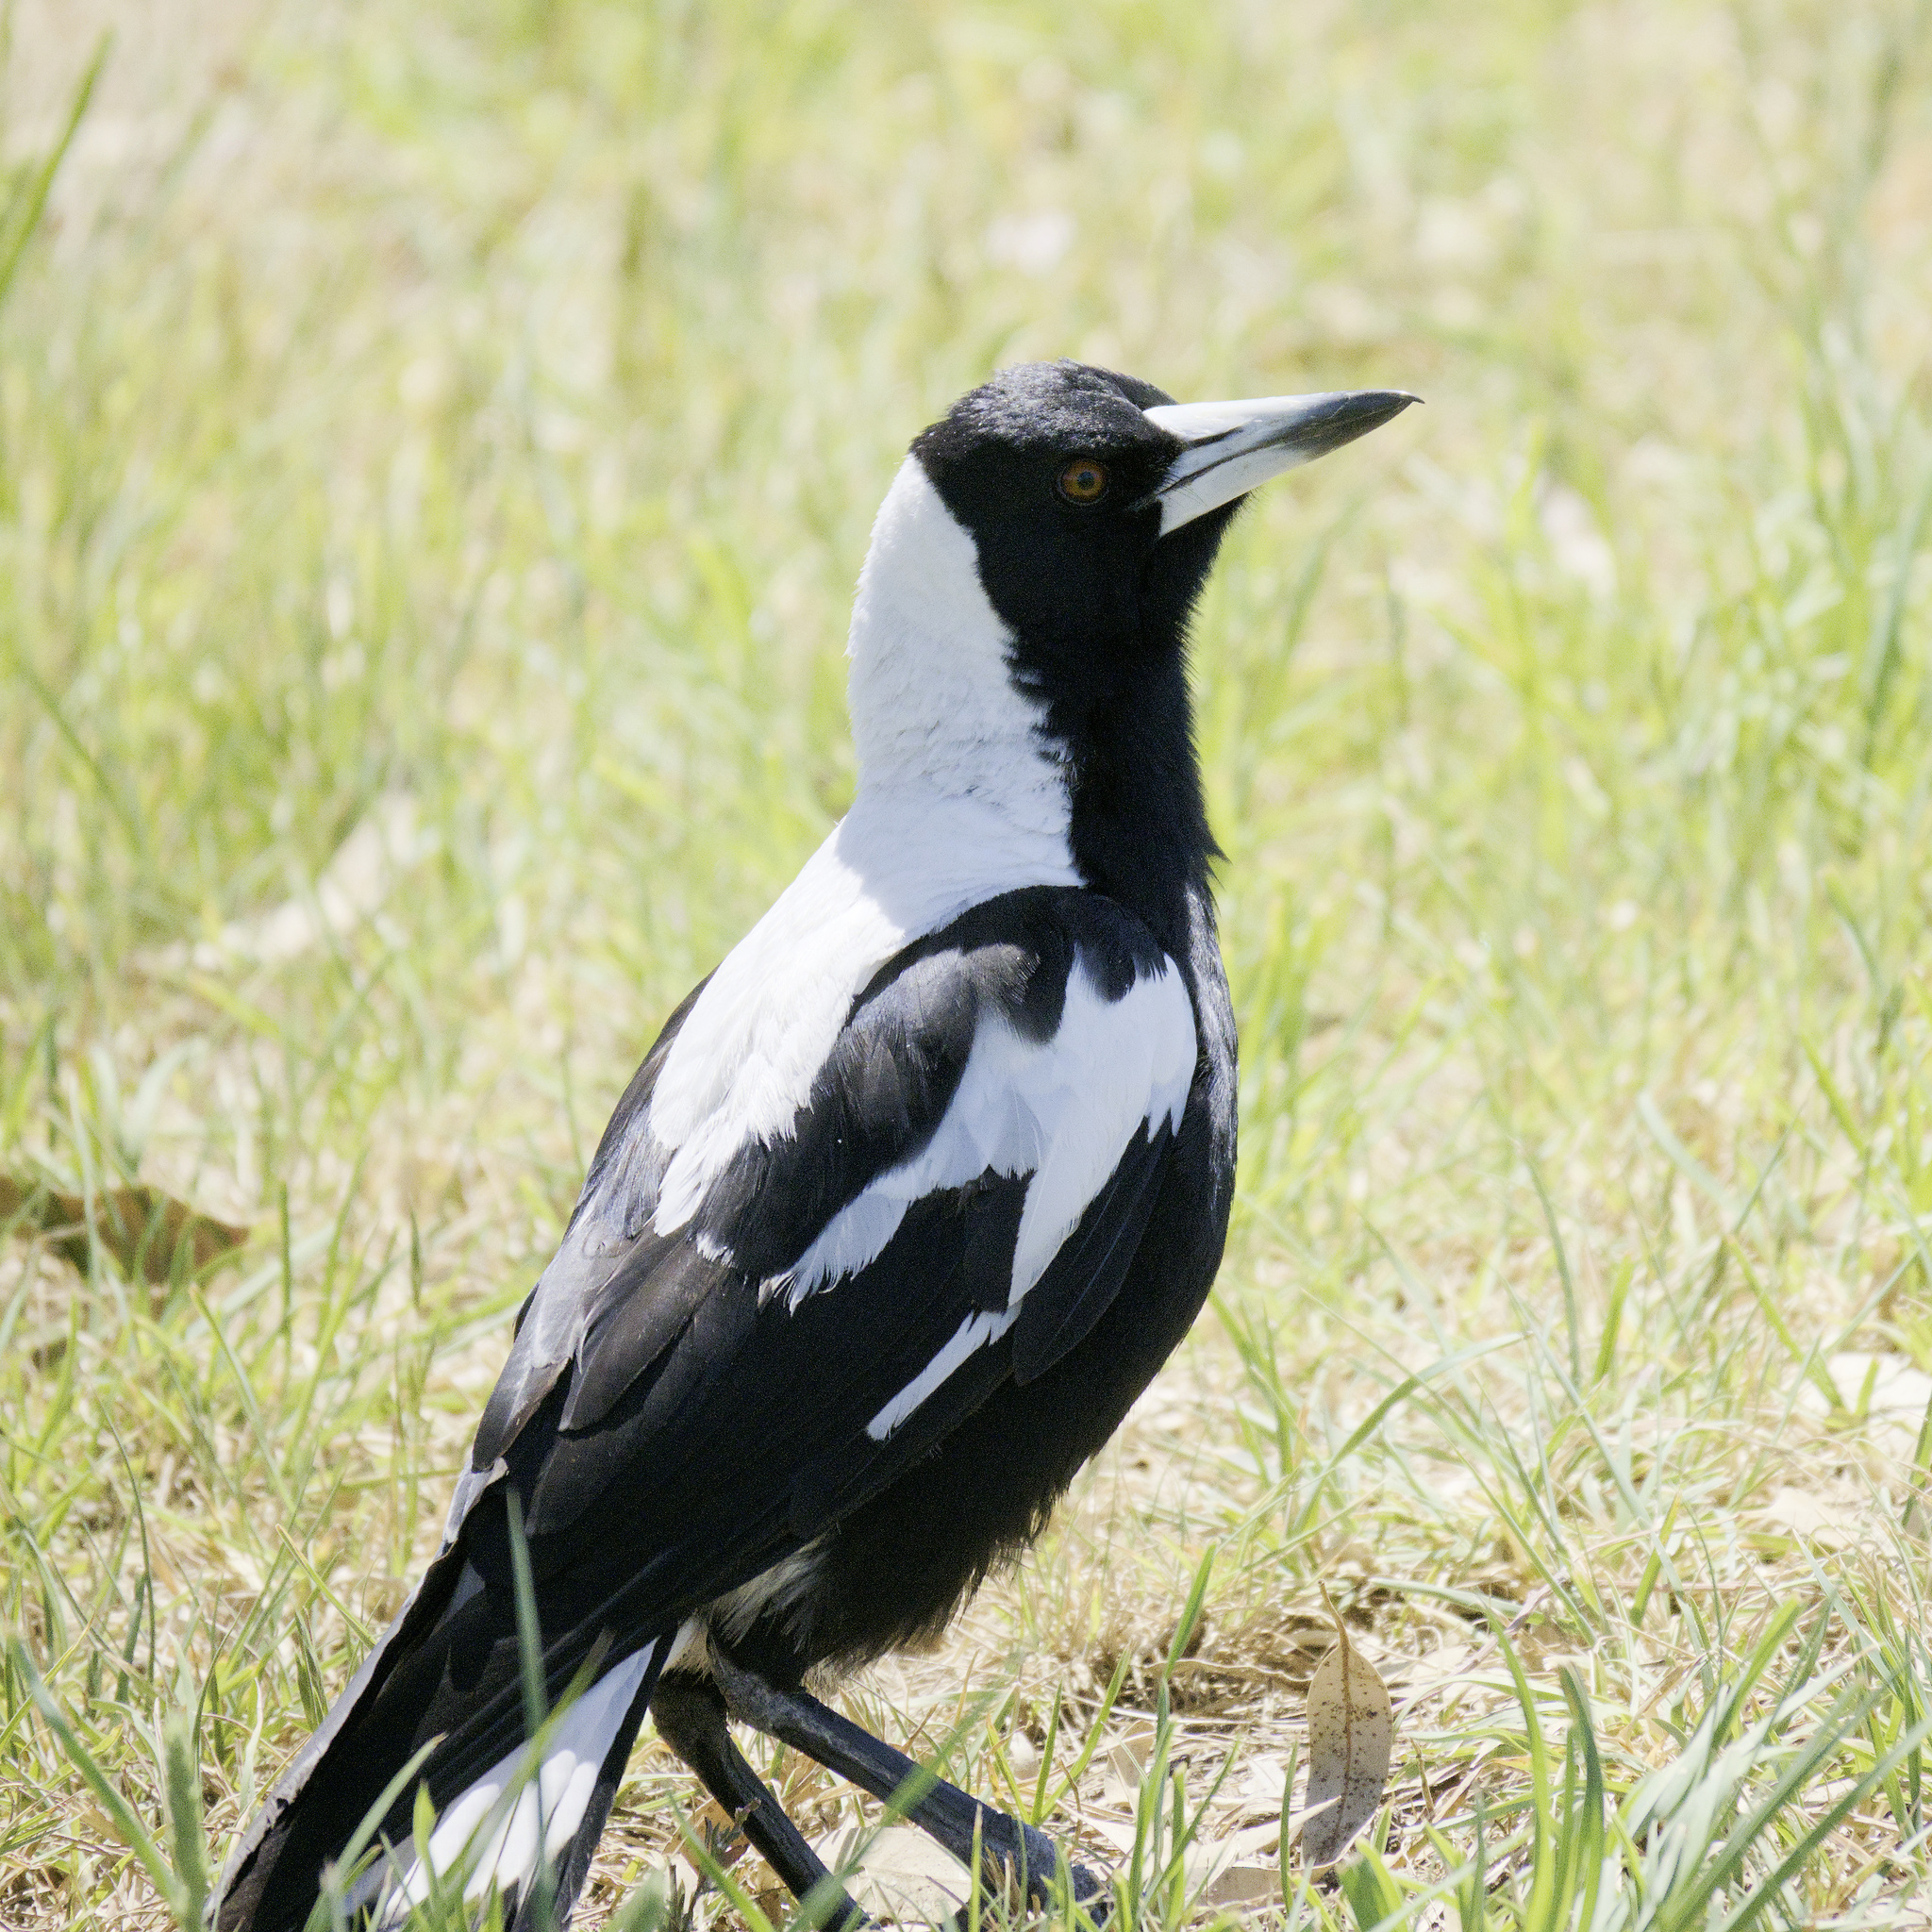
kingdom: Animalia
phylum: Chordata
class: Aves
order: Passeriformes
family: Cracticidae
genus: Gymnorhina
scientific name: Gymnorhina tibicen
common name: Australian magpie
